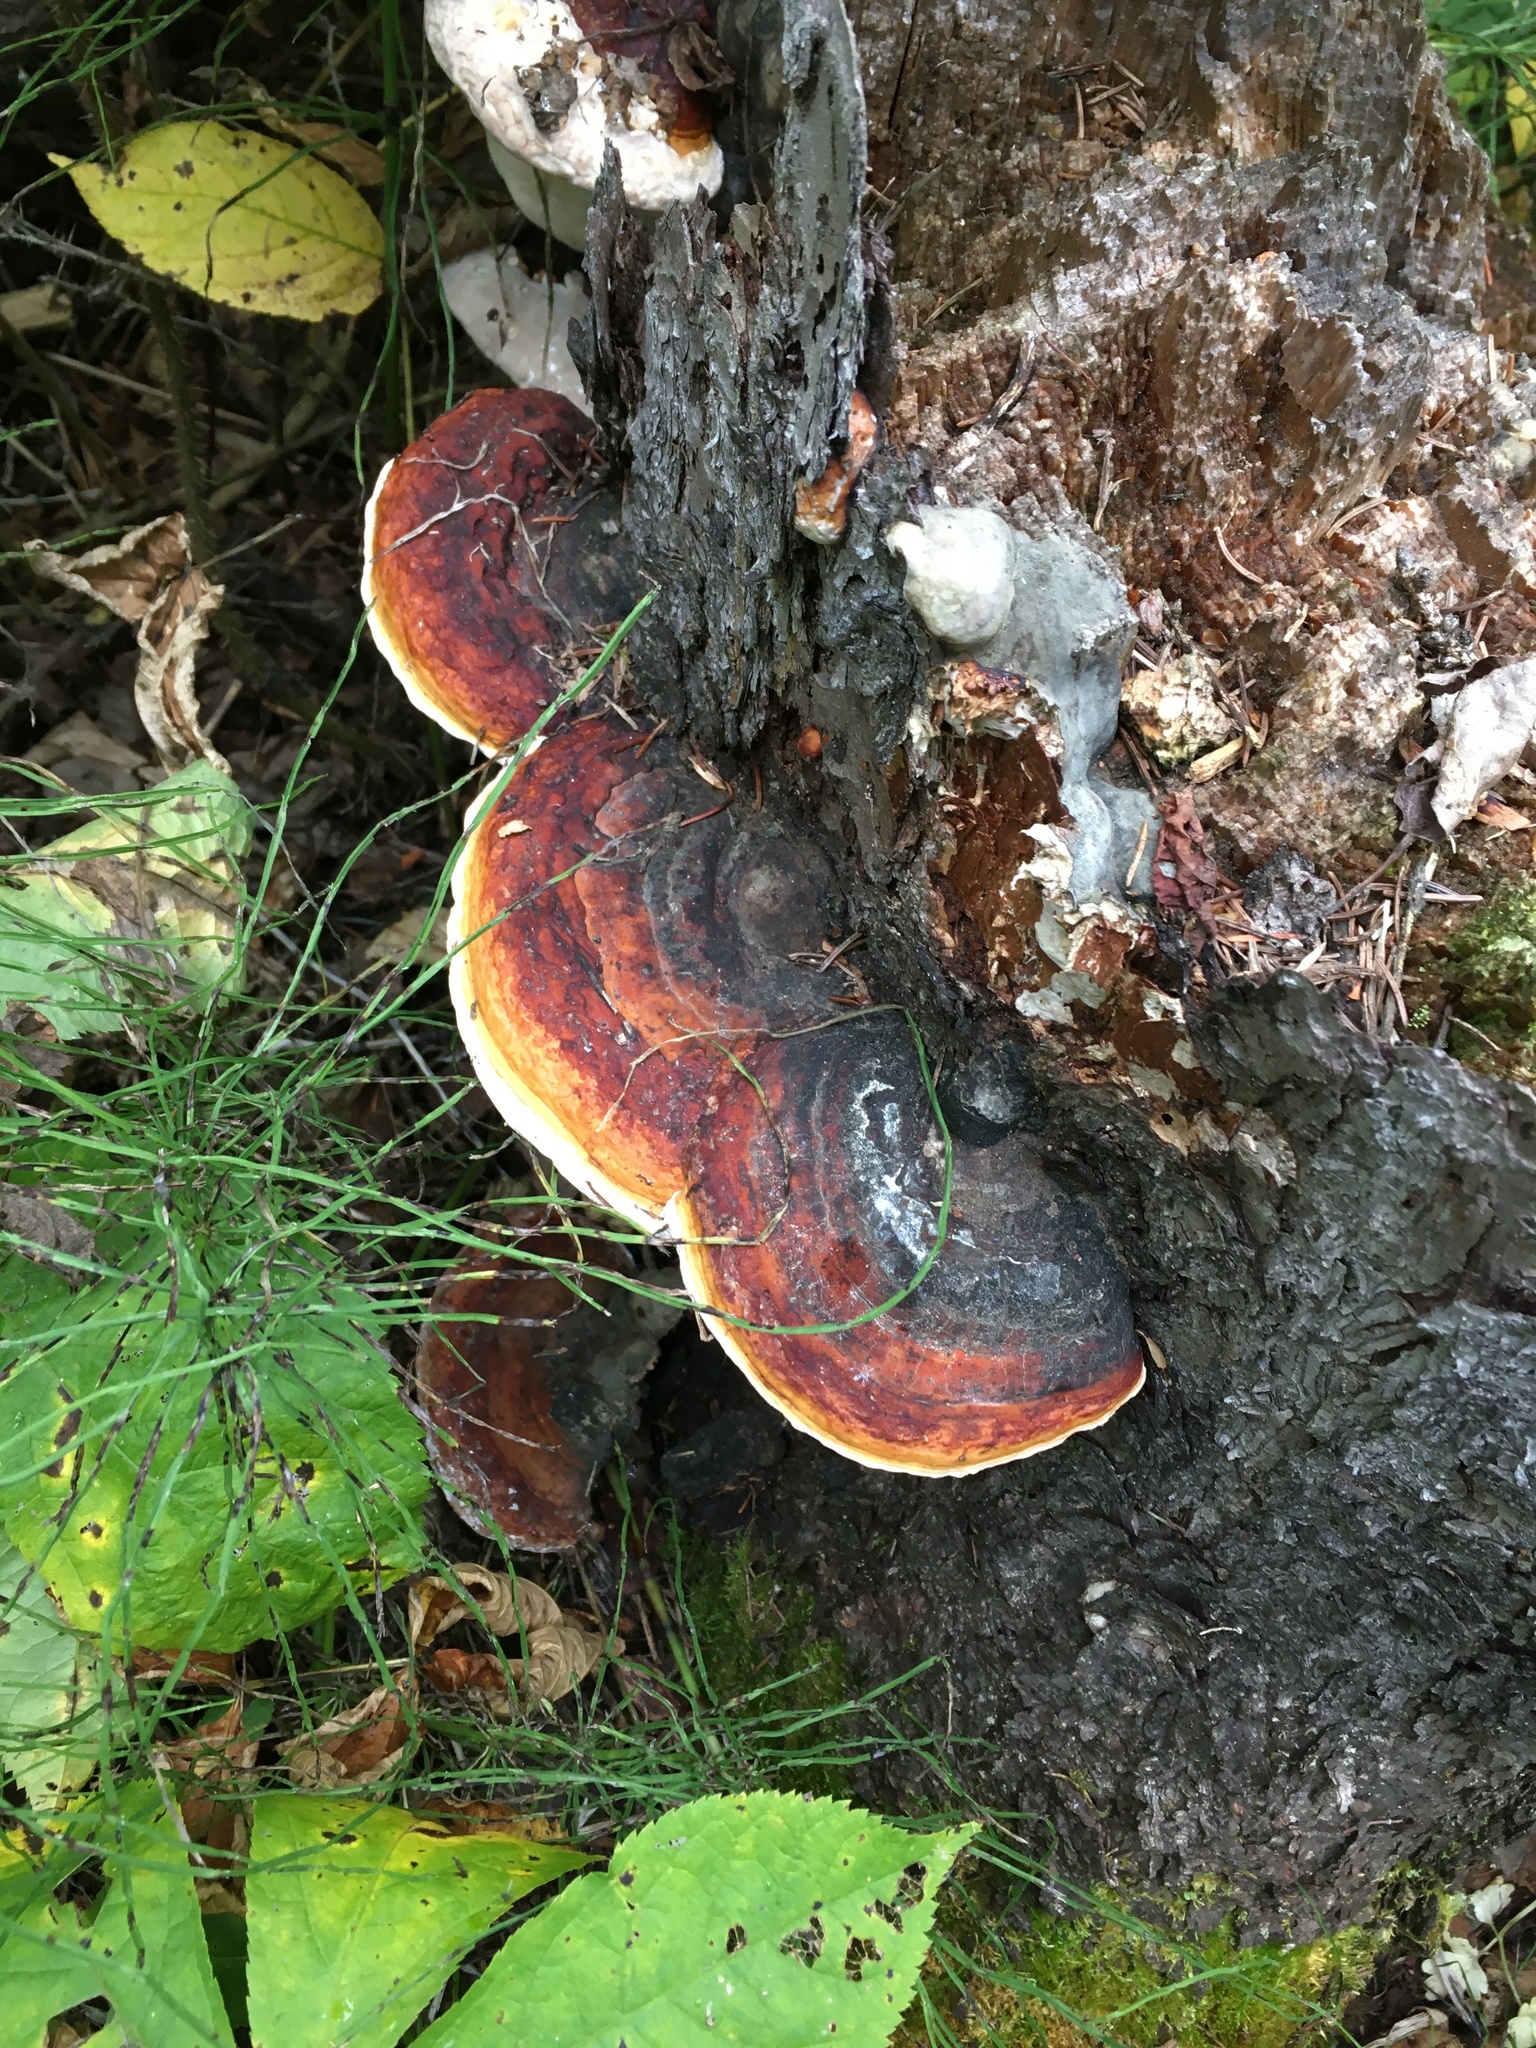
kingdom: Fungi
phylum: Basidiomycota
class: Agaricomycetes
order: Polyporales
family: Fomitopsidaceae
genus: Fomitopsis
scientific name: Fomitopsis mounceae
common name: Northern red belt
